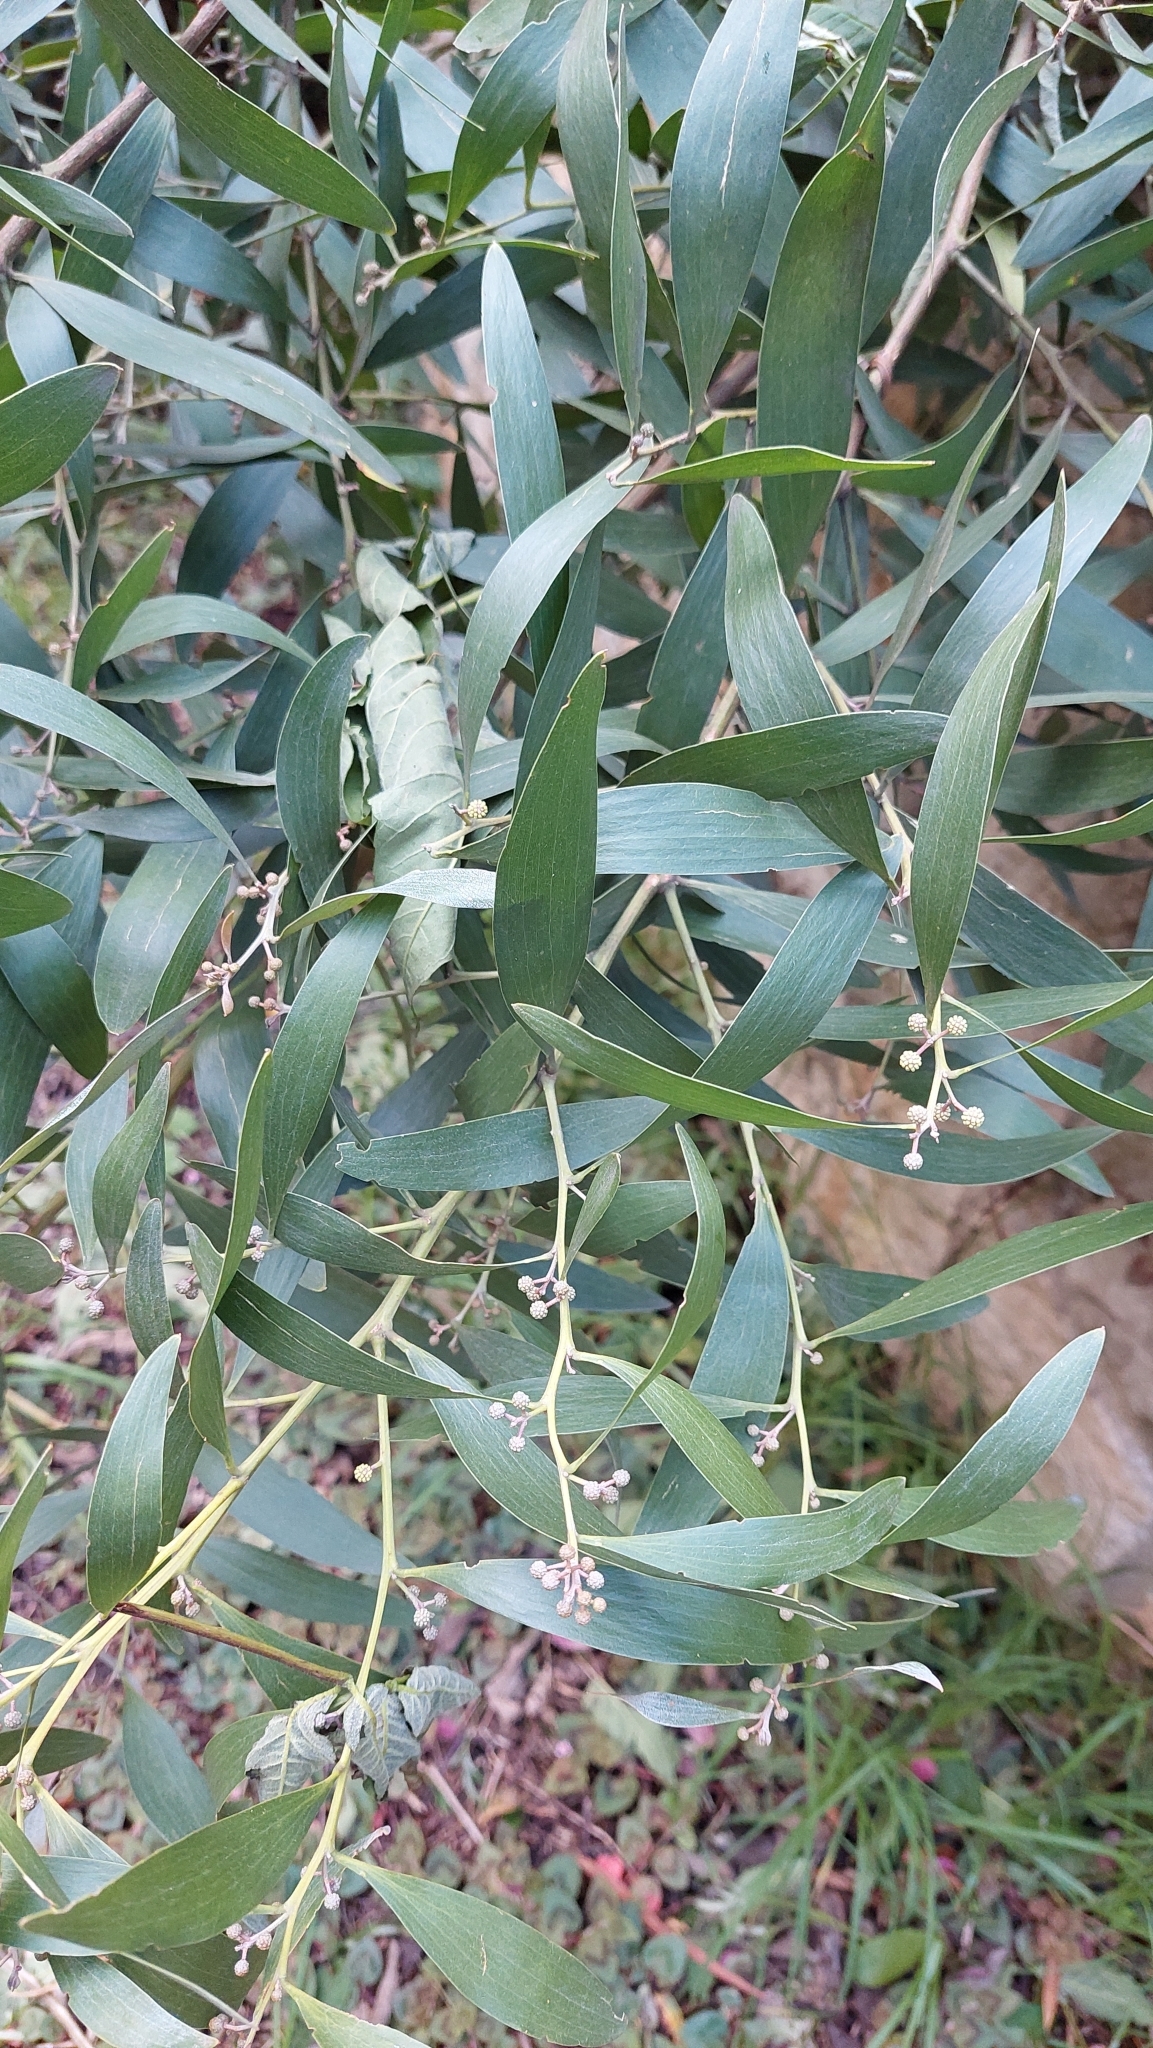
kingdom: Plantae
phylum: Tracheophyta
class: Magnoliopsida
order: Fabales
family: Fabaceae
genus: Acacia
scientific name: Acacia melanoxylon
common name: Blackwood
